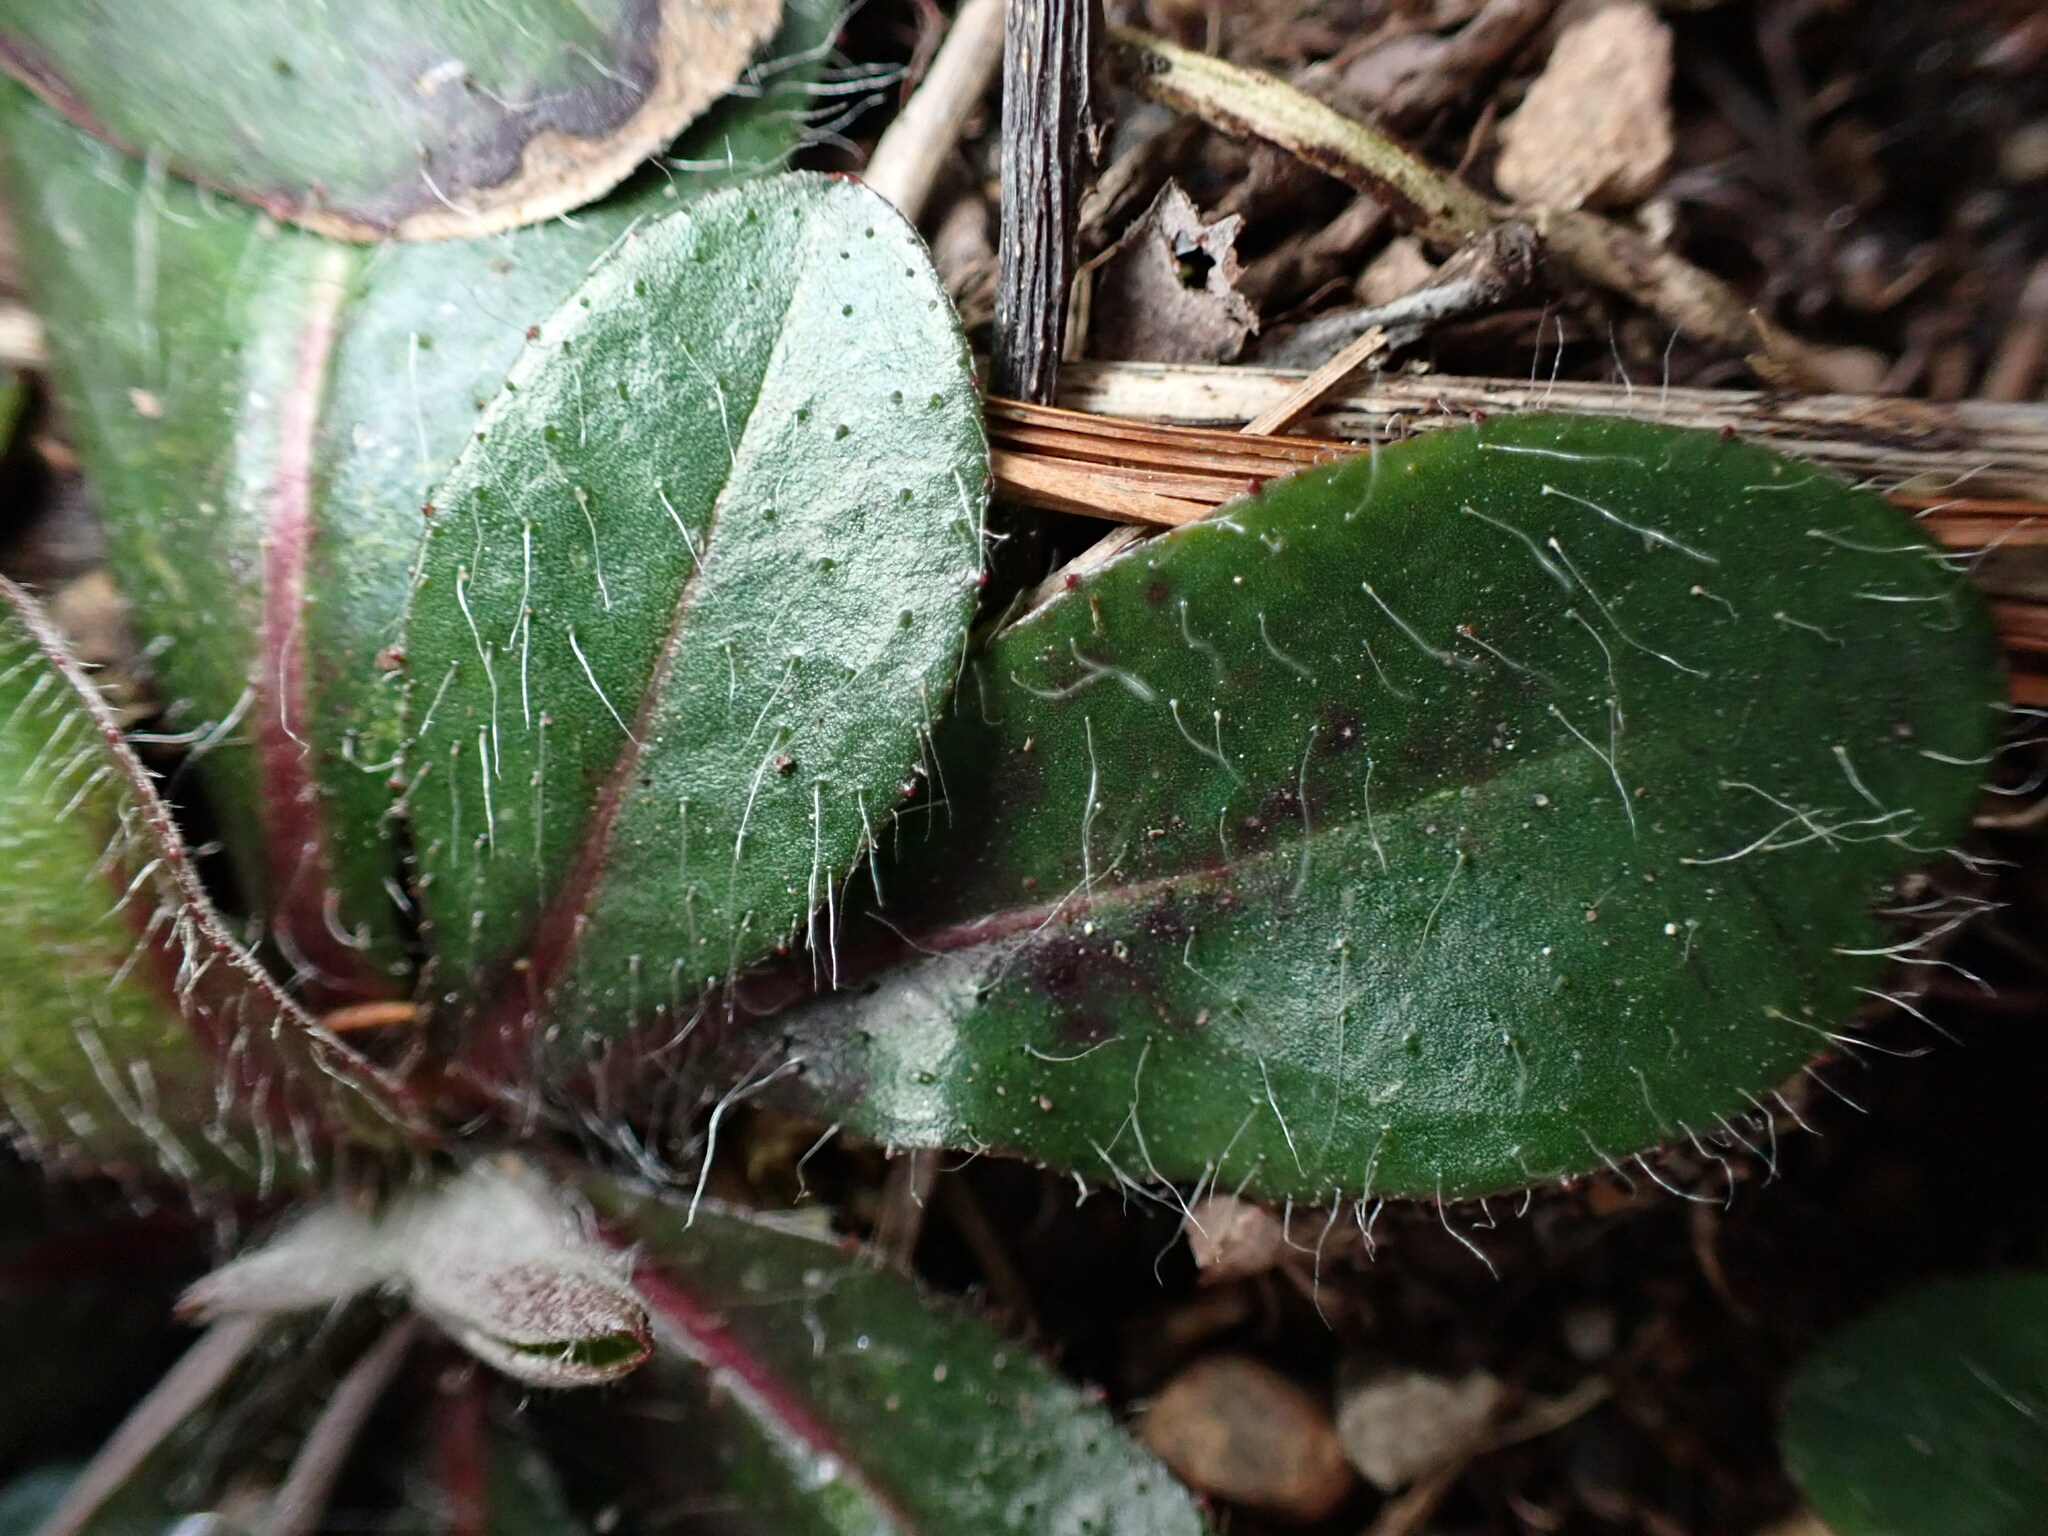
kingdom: Plantae
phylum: Tracheophyta
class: Magnoliopsida
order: Asterales
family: Asteraceae
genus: Pilosella
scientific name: Pilosella officinarum
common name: Mouse-ear hawkweed
